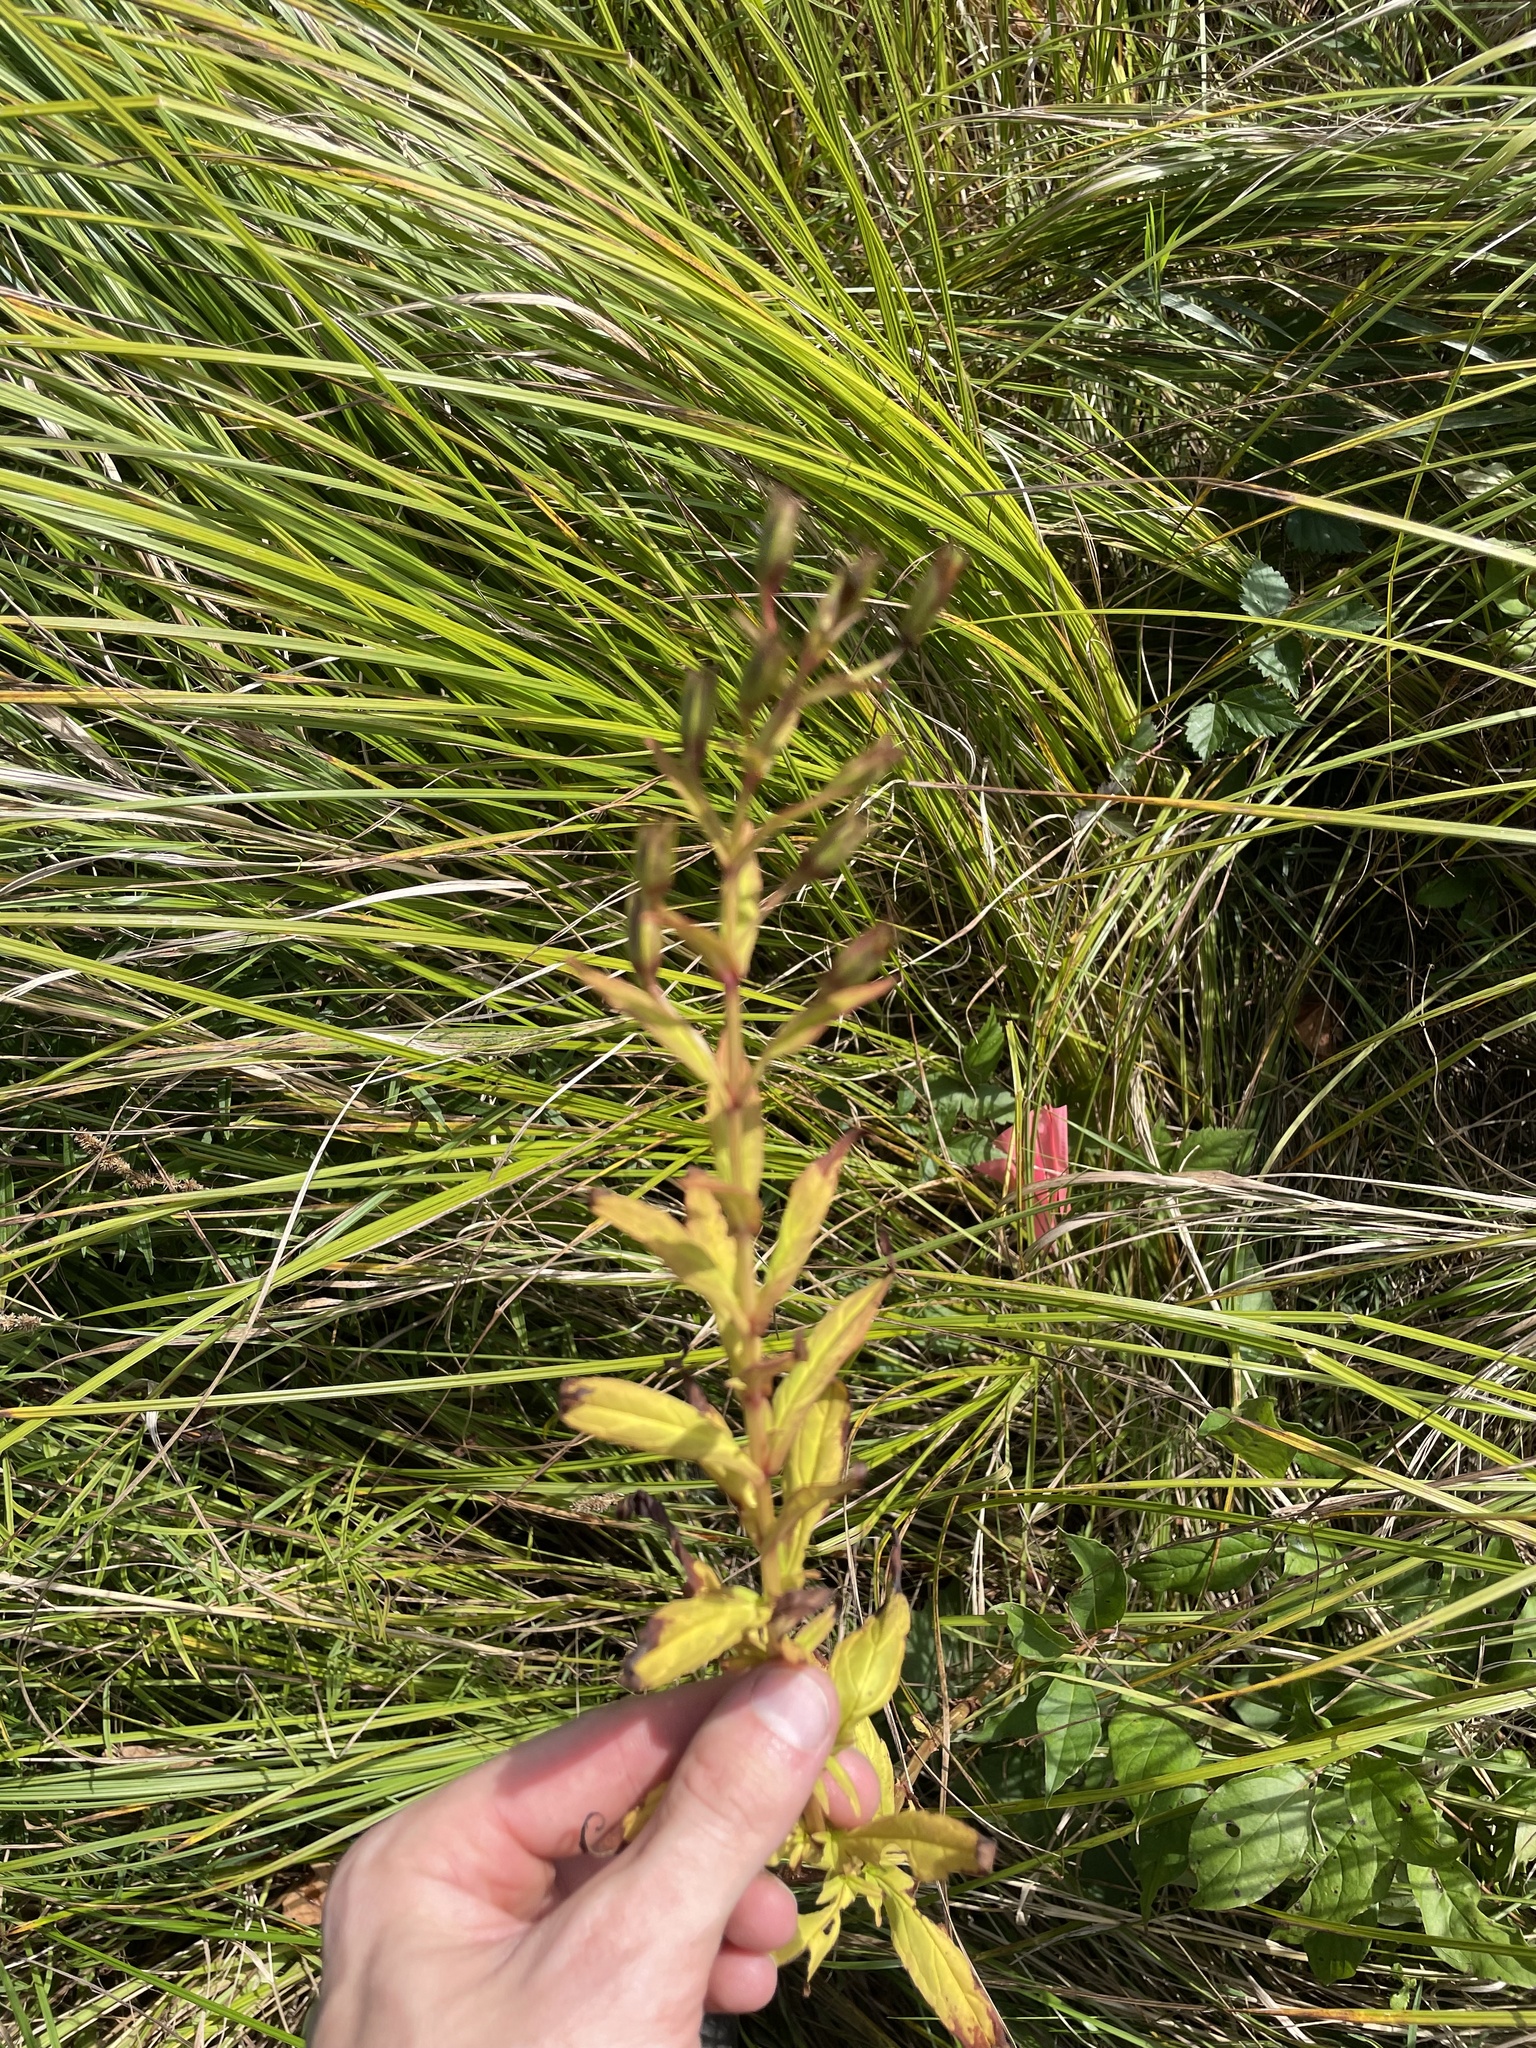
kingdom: Plantae
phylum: Tracheophyta
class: Magnoliopsida
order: Lamiales
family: Phrymaceae
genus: Mimulus
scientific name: Mimulus ringens
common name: Allegheny monkeyflower
